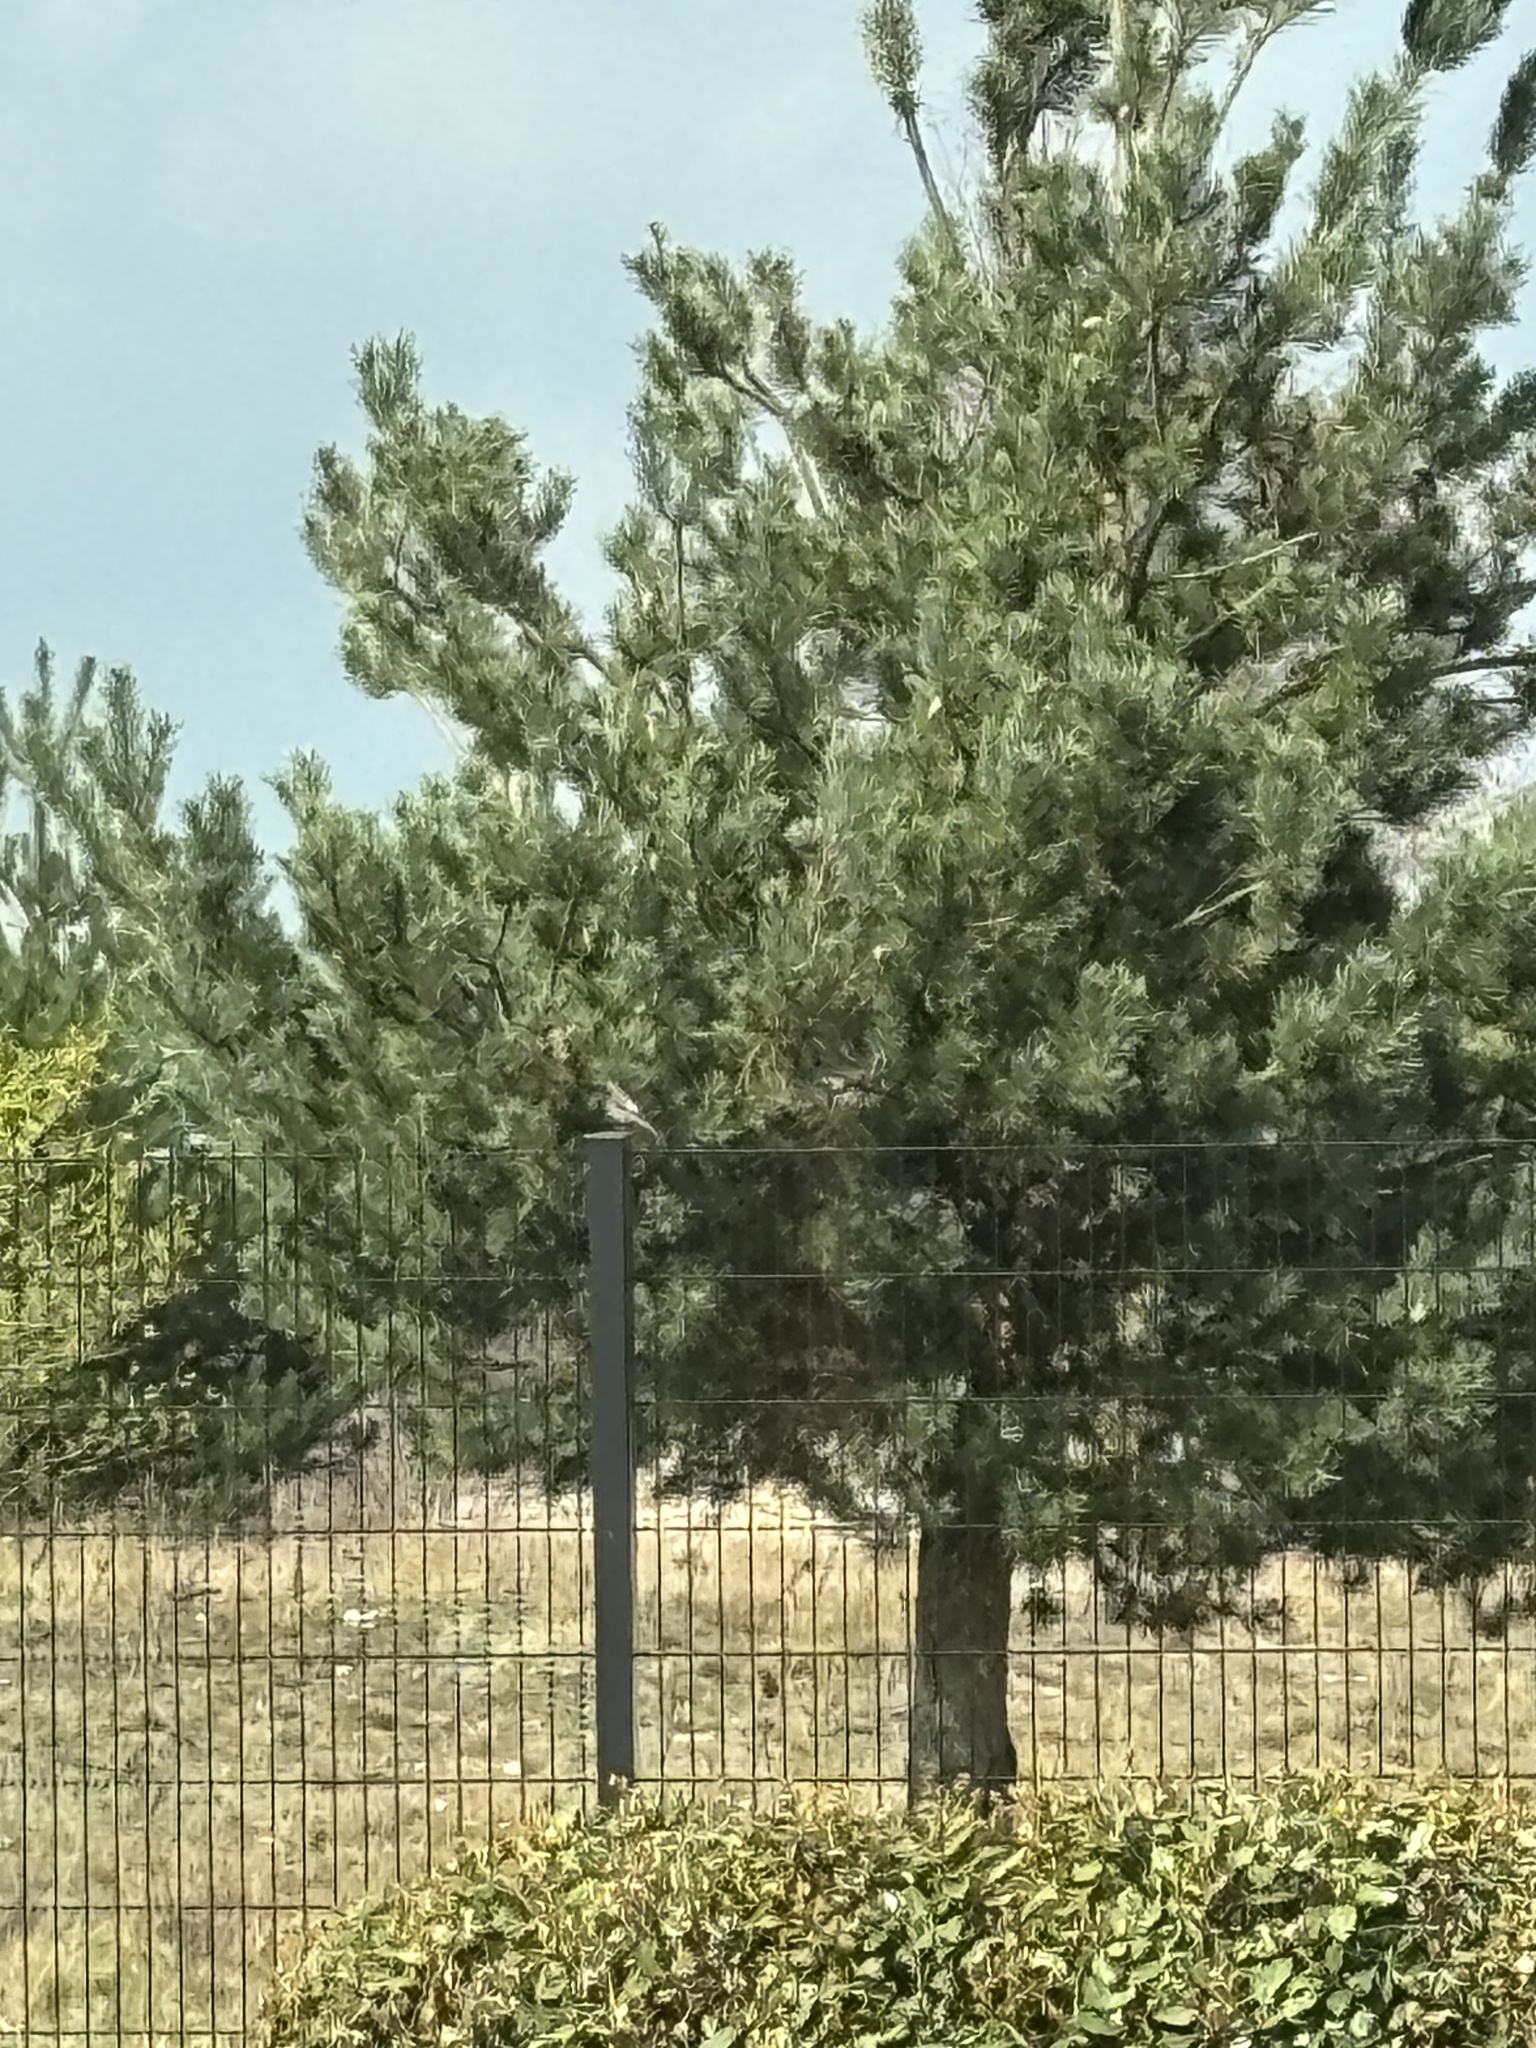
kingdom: Animalia
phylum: Chordata
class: Aves
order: Passeriformes
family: Muscicapidae
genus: Phoenicurus
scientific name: Phoenicurus ochruros
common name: Black redstart
